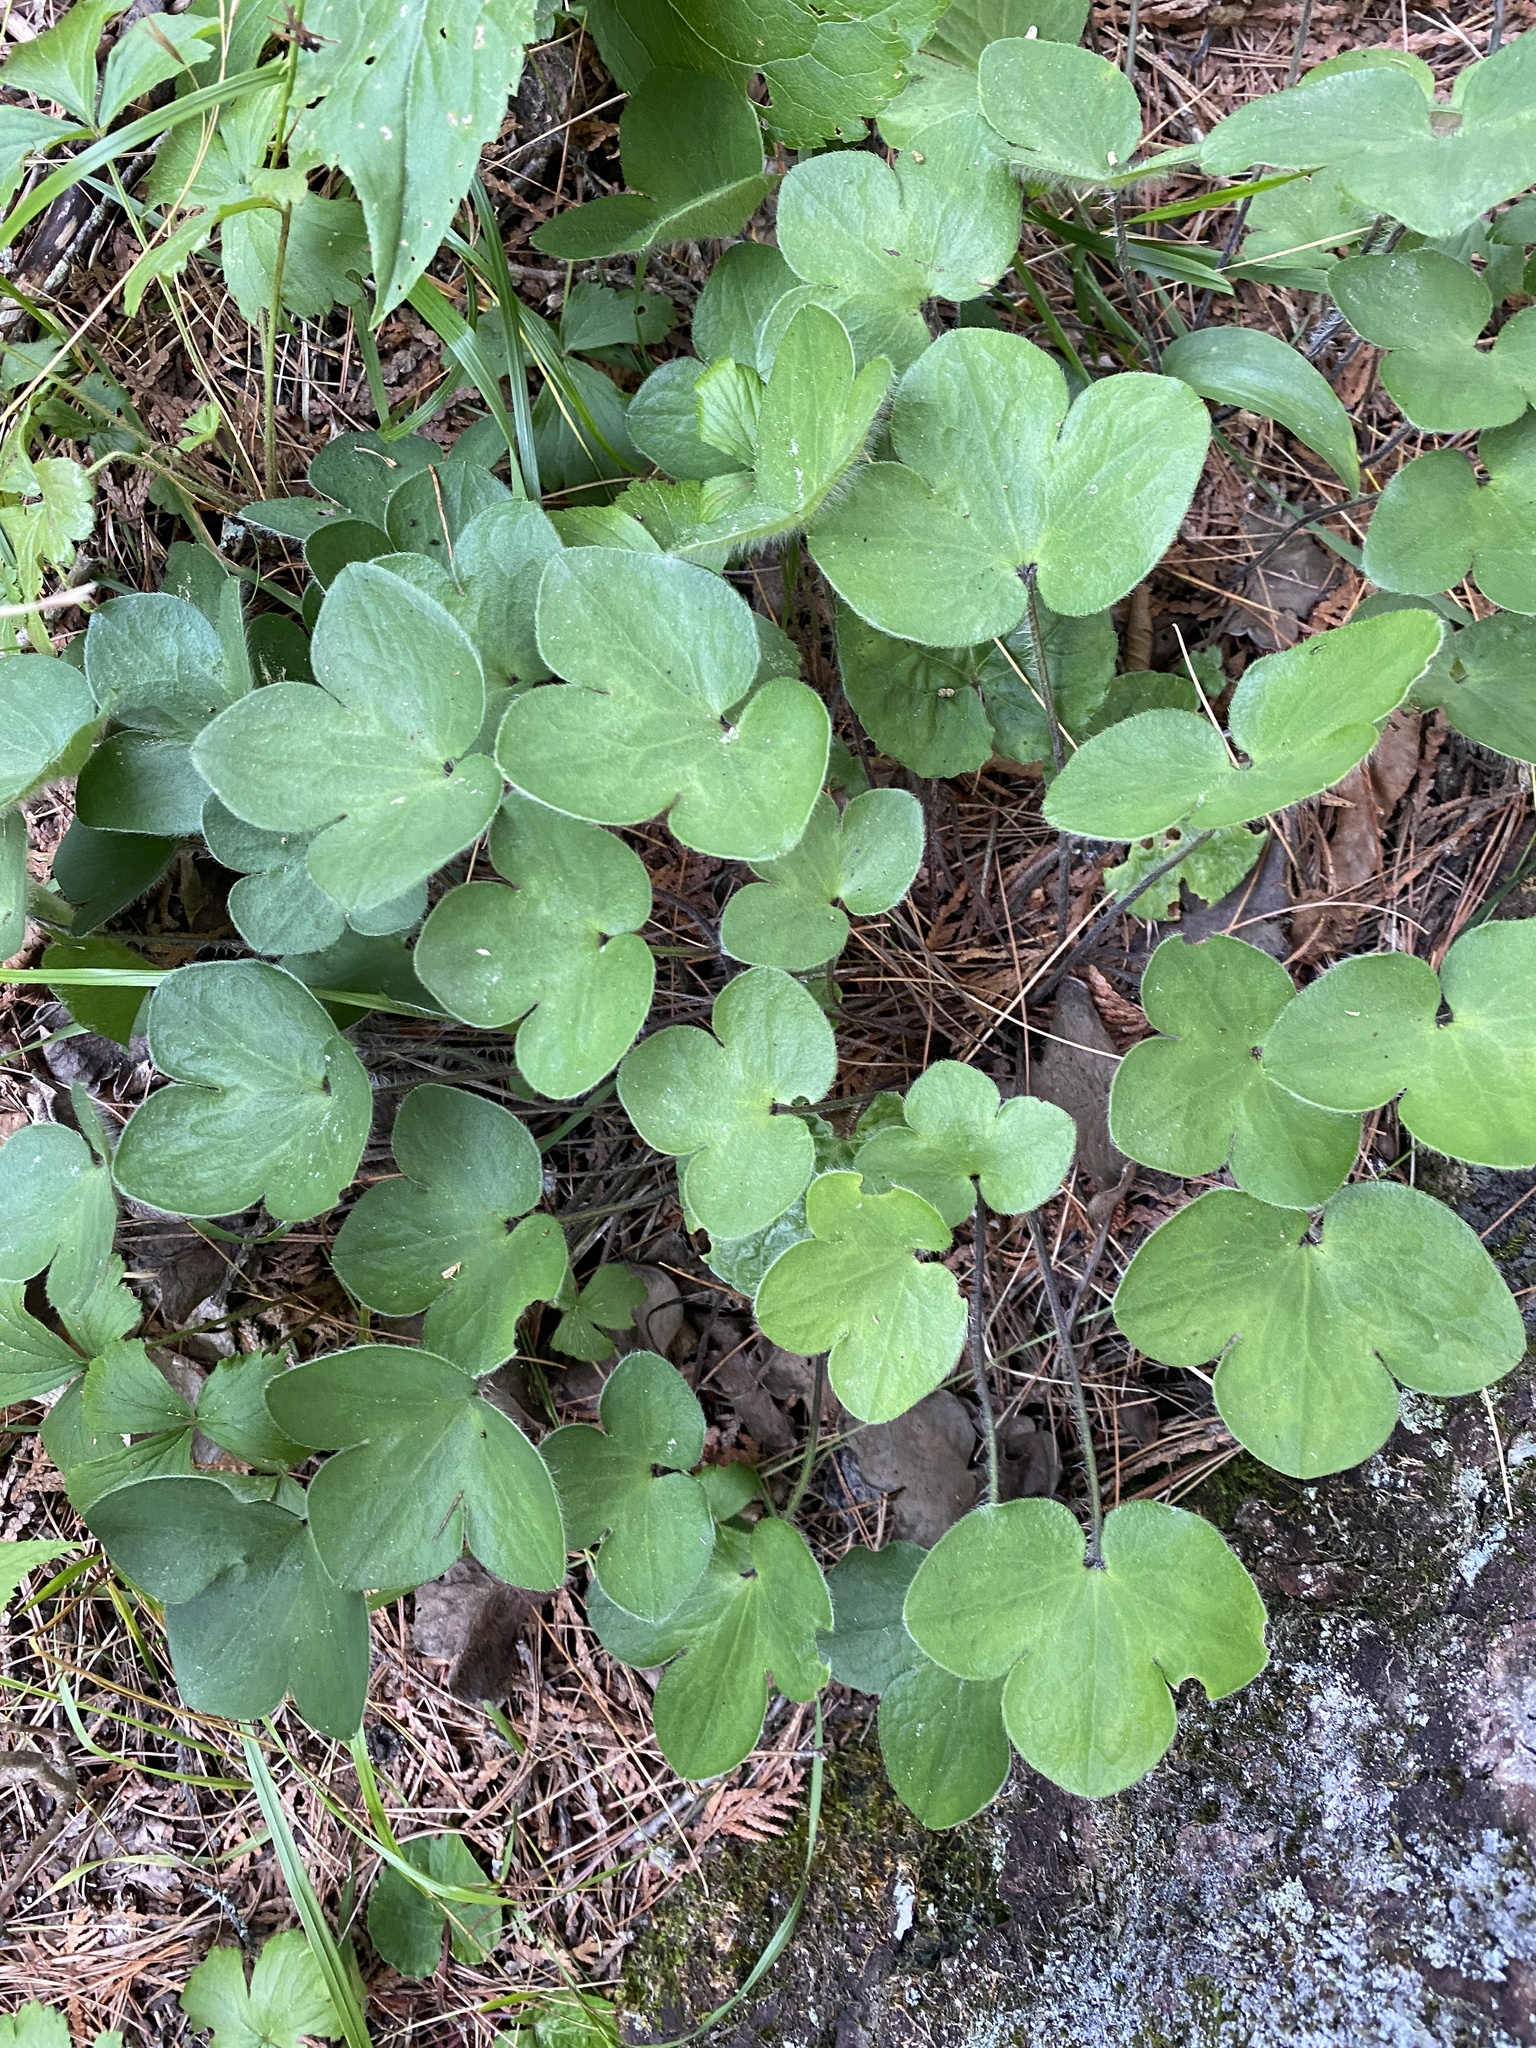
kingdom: Plantae
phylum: Tracheophyta
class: Magnoliopsida
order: Ranunculales
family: Ranunculaceae
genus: Hepatica
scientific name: Hepatica americana
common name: American hepatica
